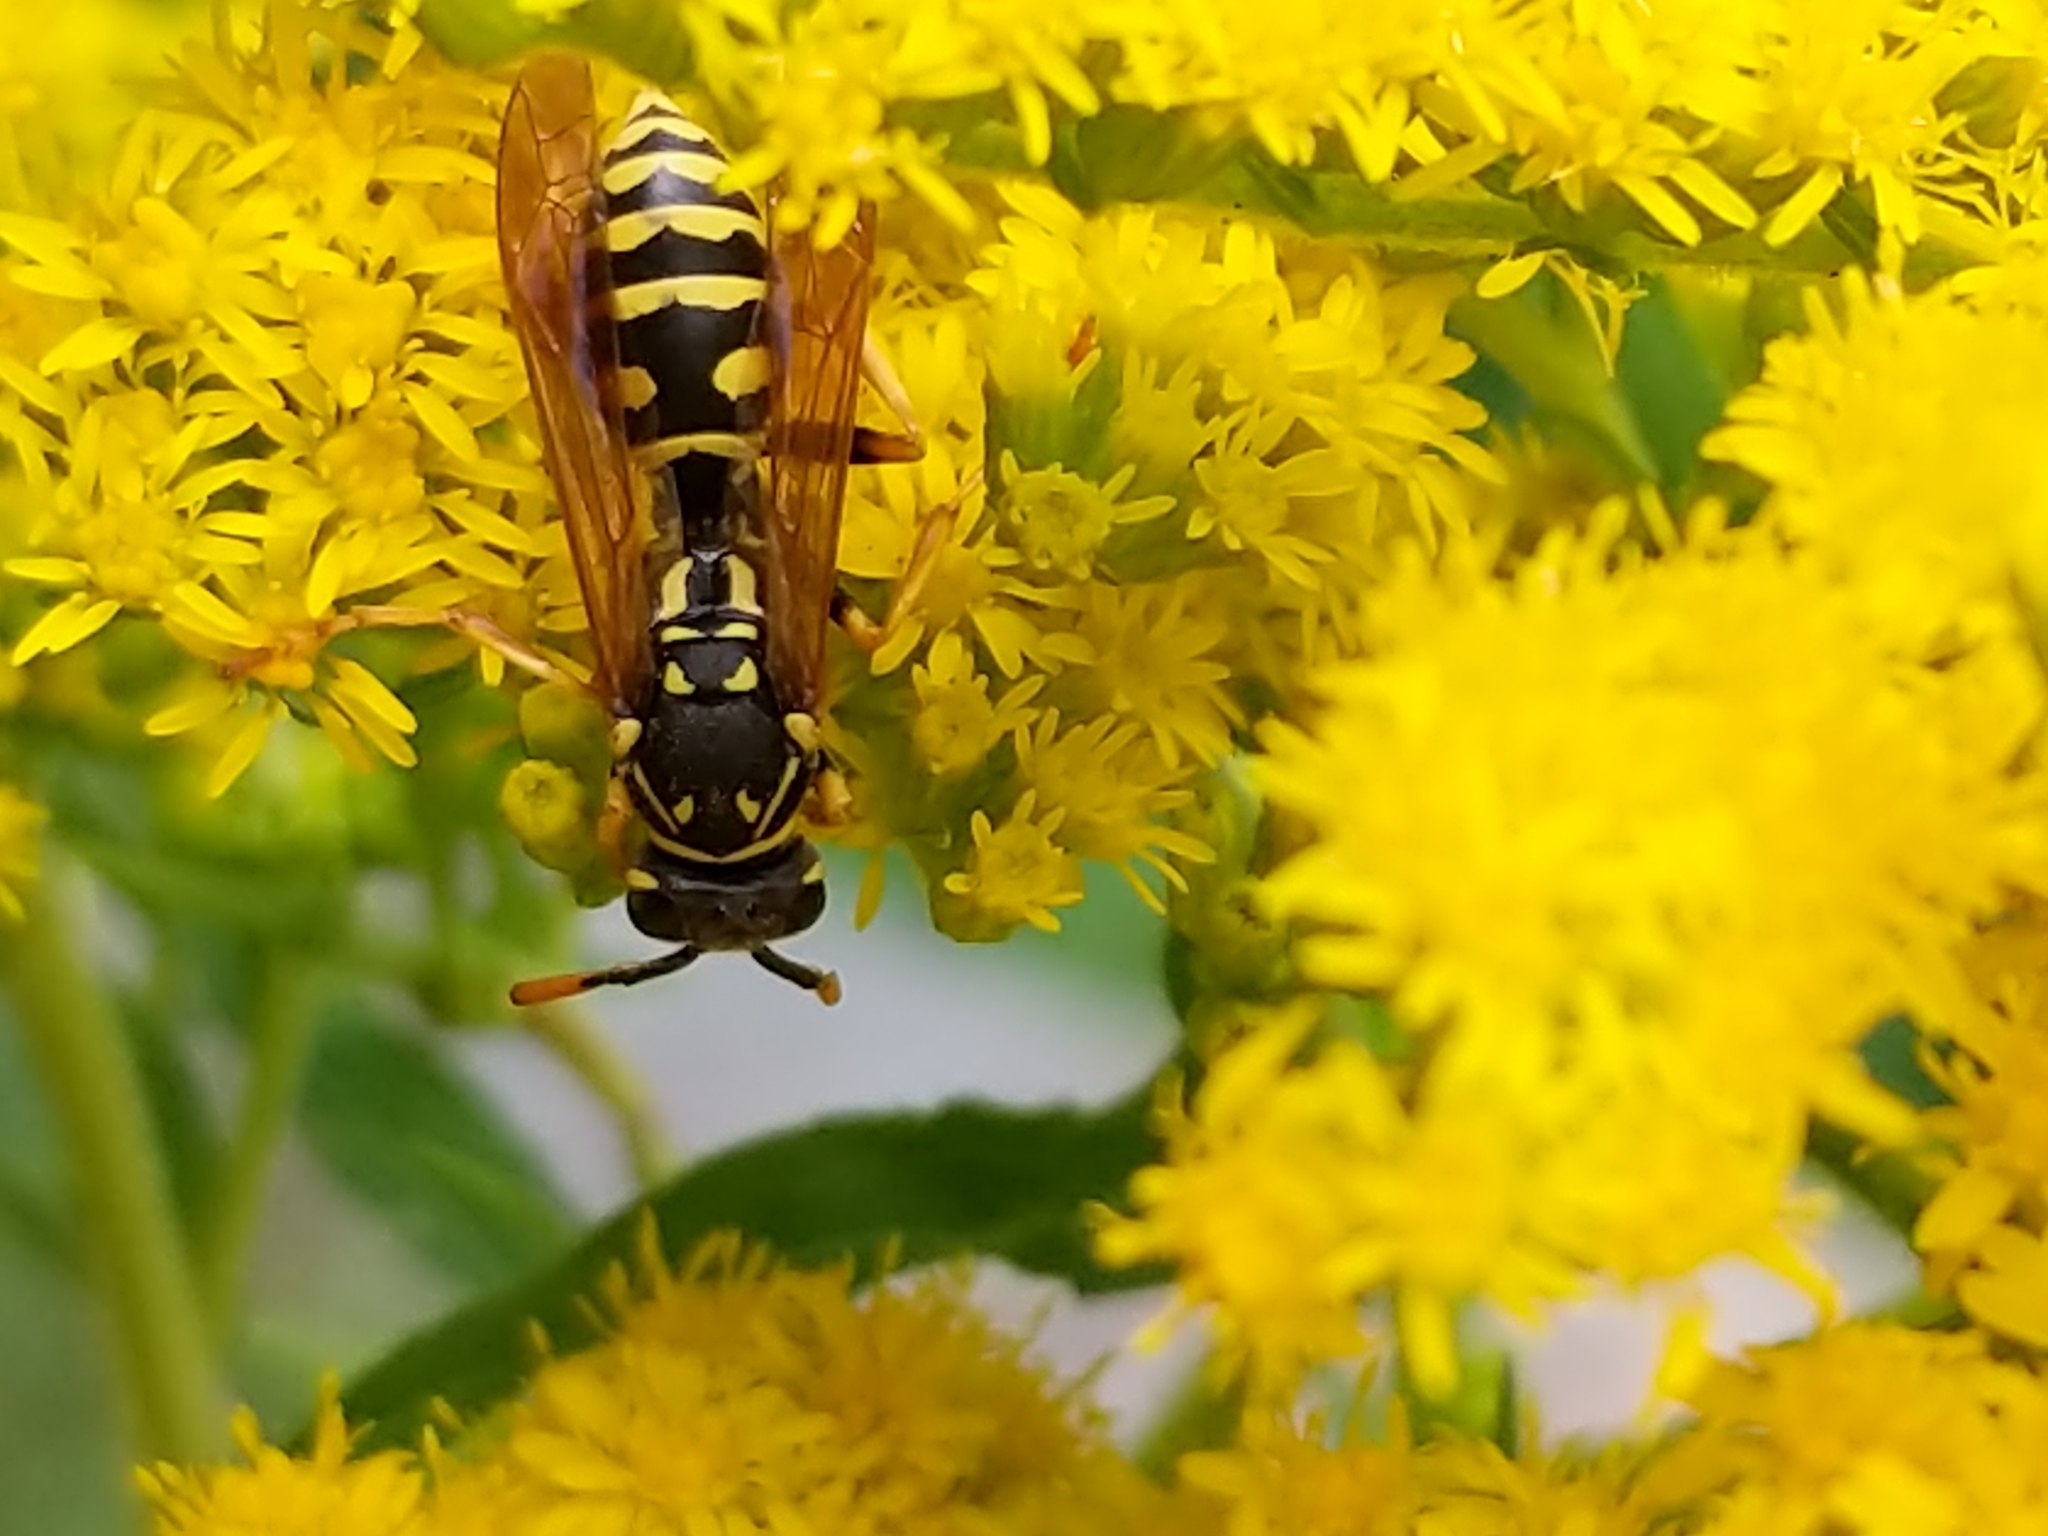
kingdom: Animalia
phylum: Arthropoda
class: Insecta
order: Hymenoptera
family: Eumenidae
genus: Polistes
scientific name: Polistes dominula
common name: Paper wasp
